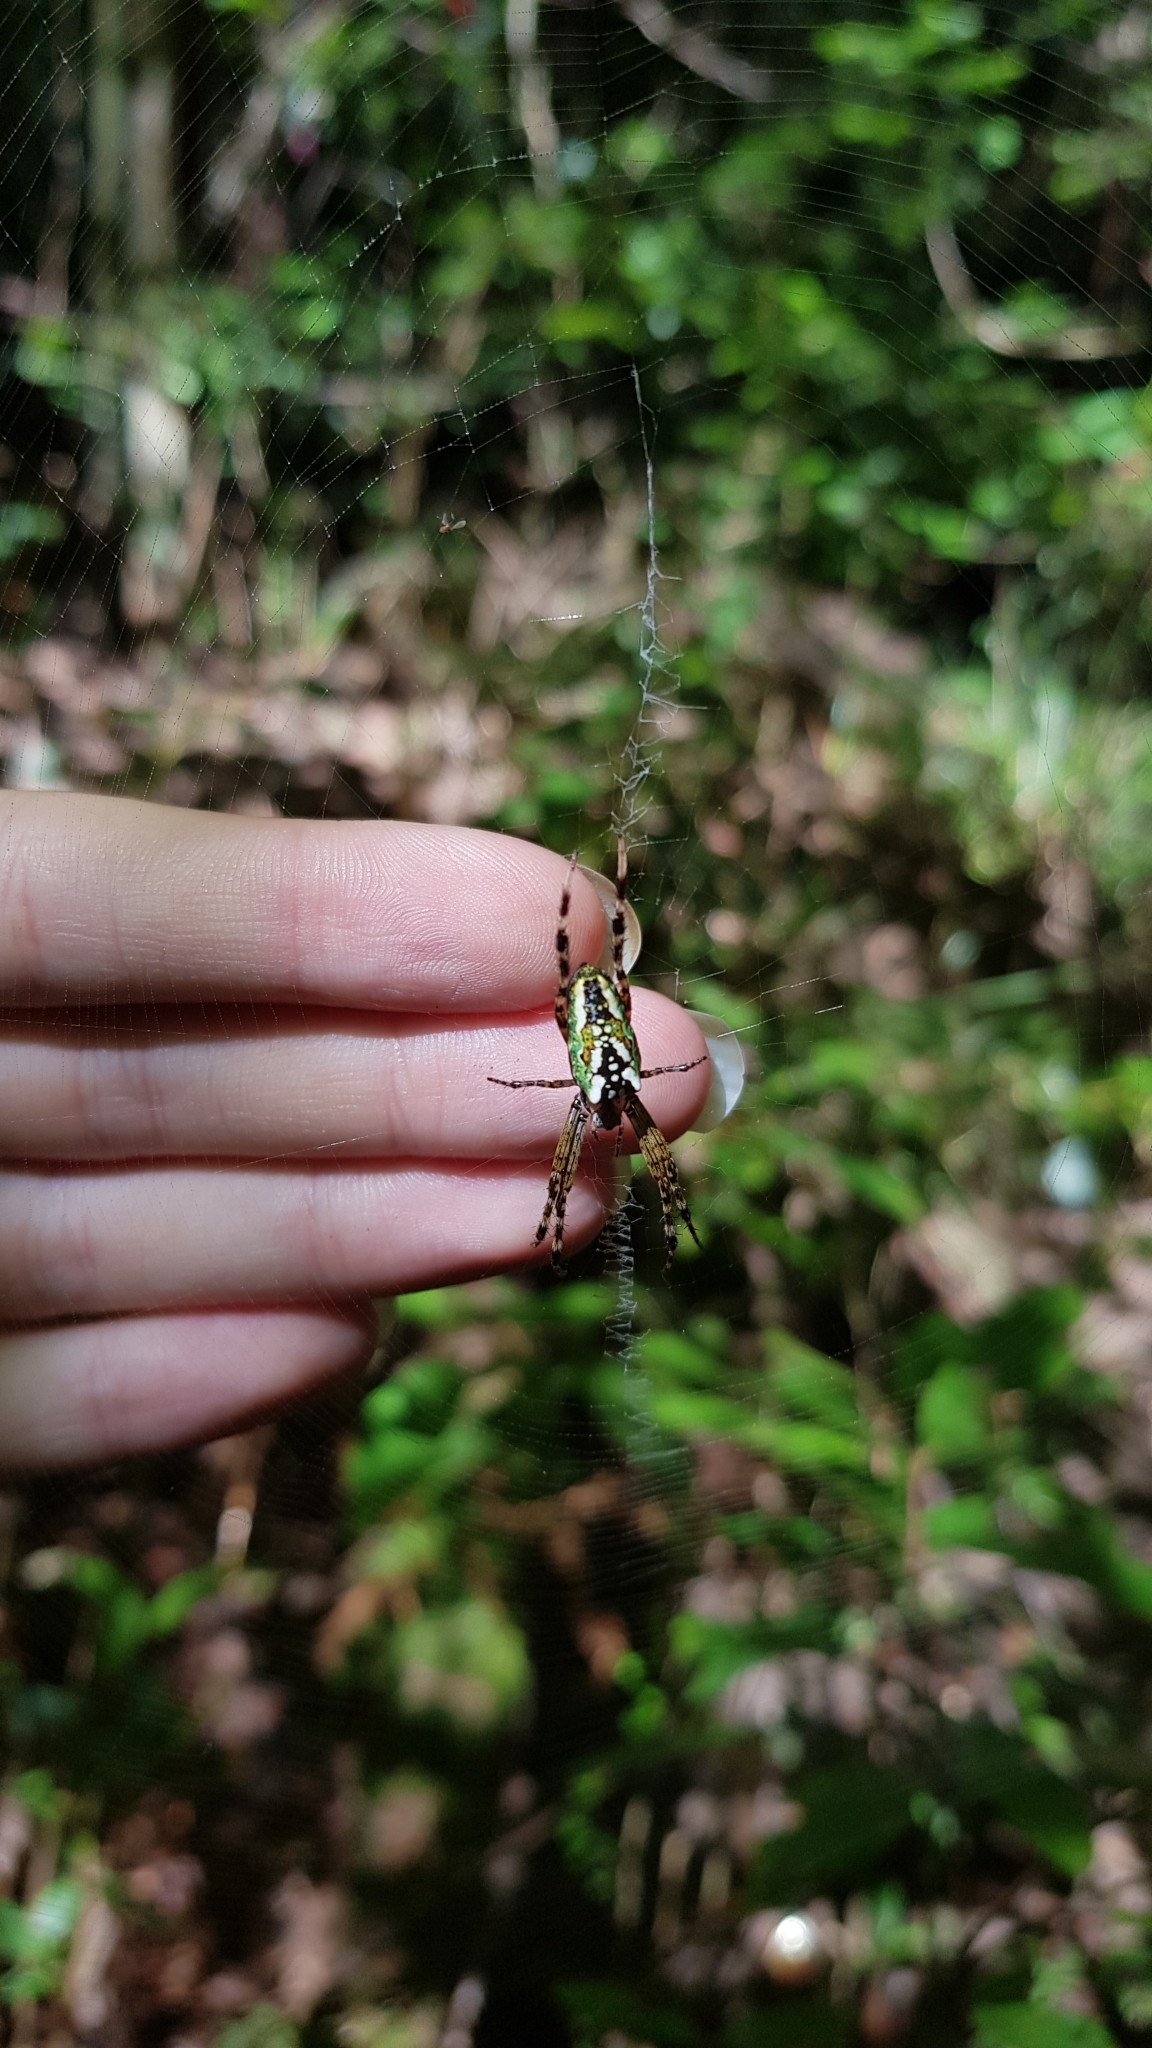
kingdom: Animalia
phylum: Arthropoda
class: Arachnida
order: Araneae
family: Araneidae
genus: Plebs
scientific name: Plebs bradleyi
